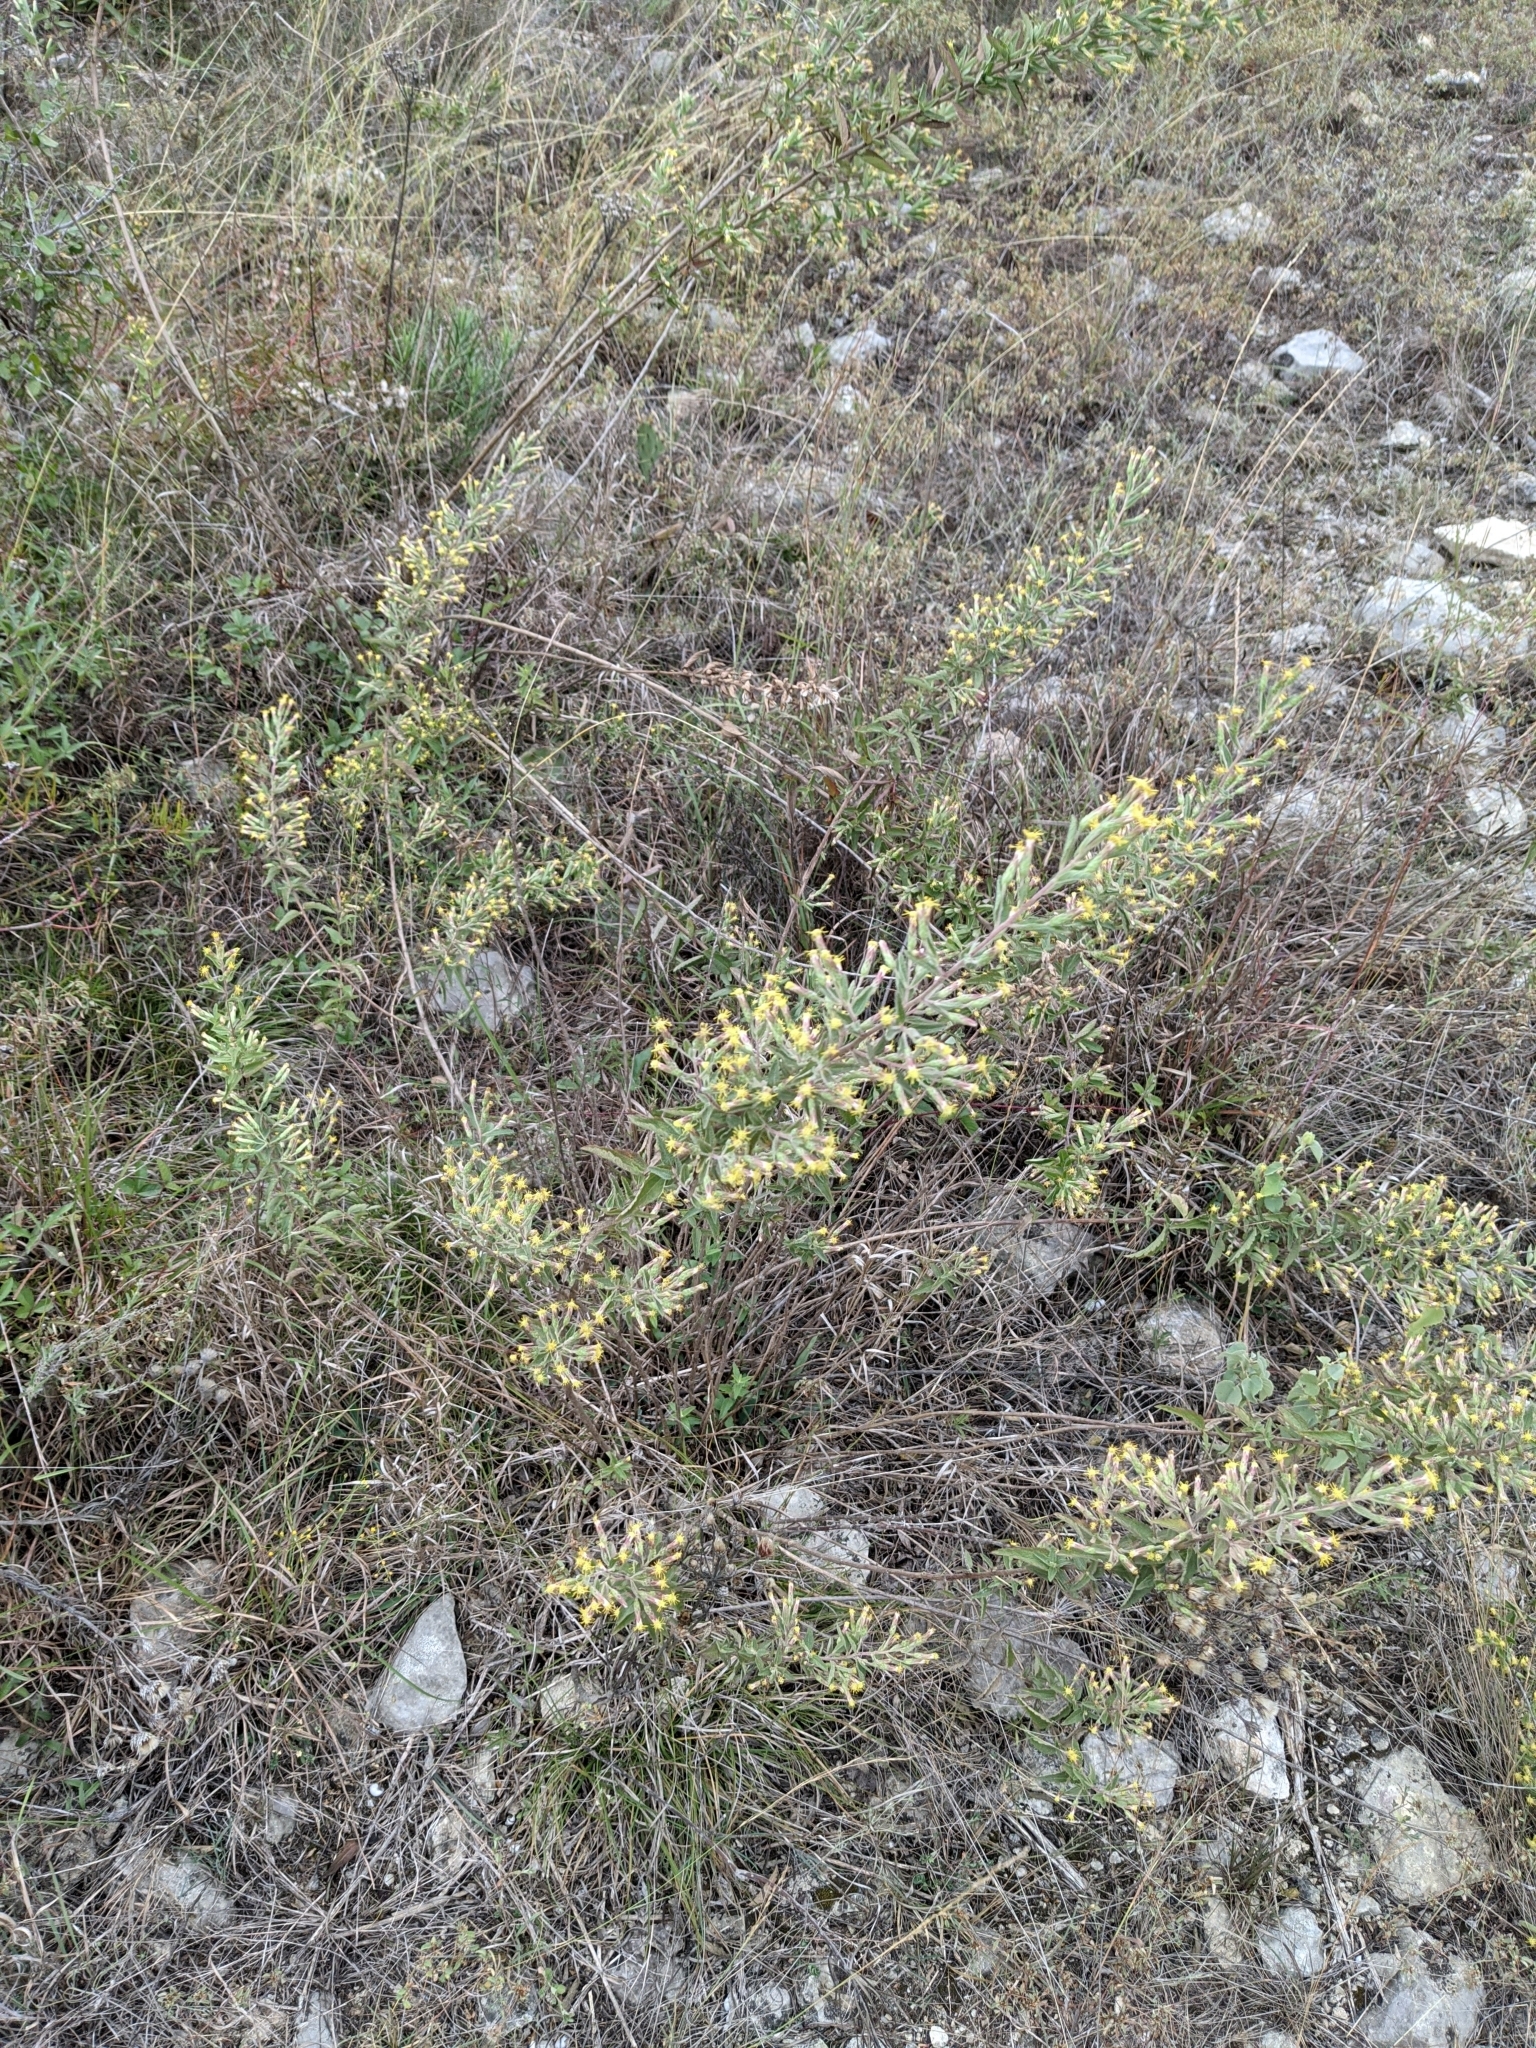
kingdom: Plantae
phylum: Tracheophyta
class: Magnoliopsida
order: Asterales
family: Asteraceae
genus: Brickellia
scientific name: Brickellia cylindracea
